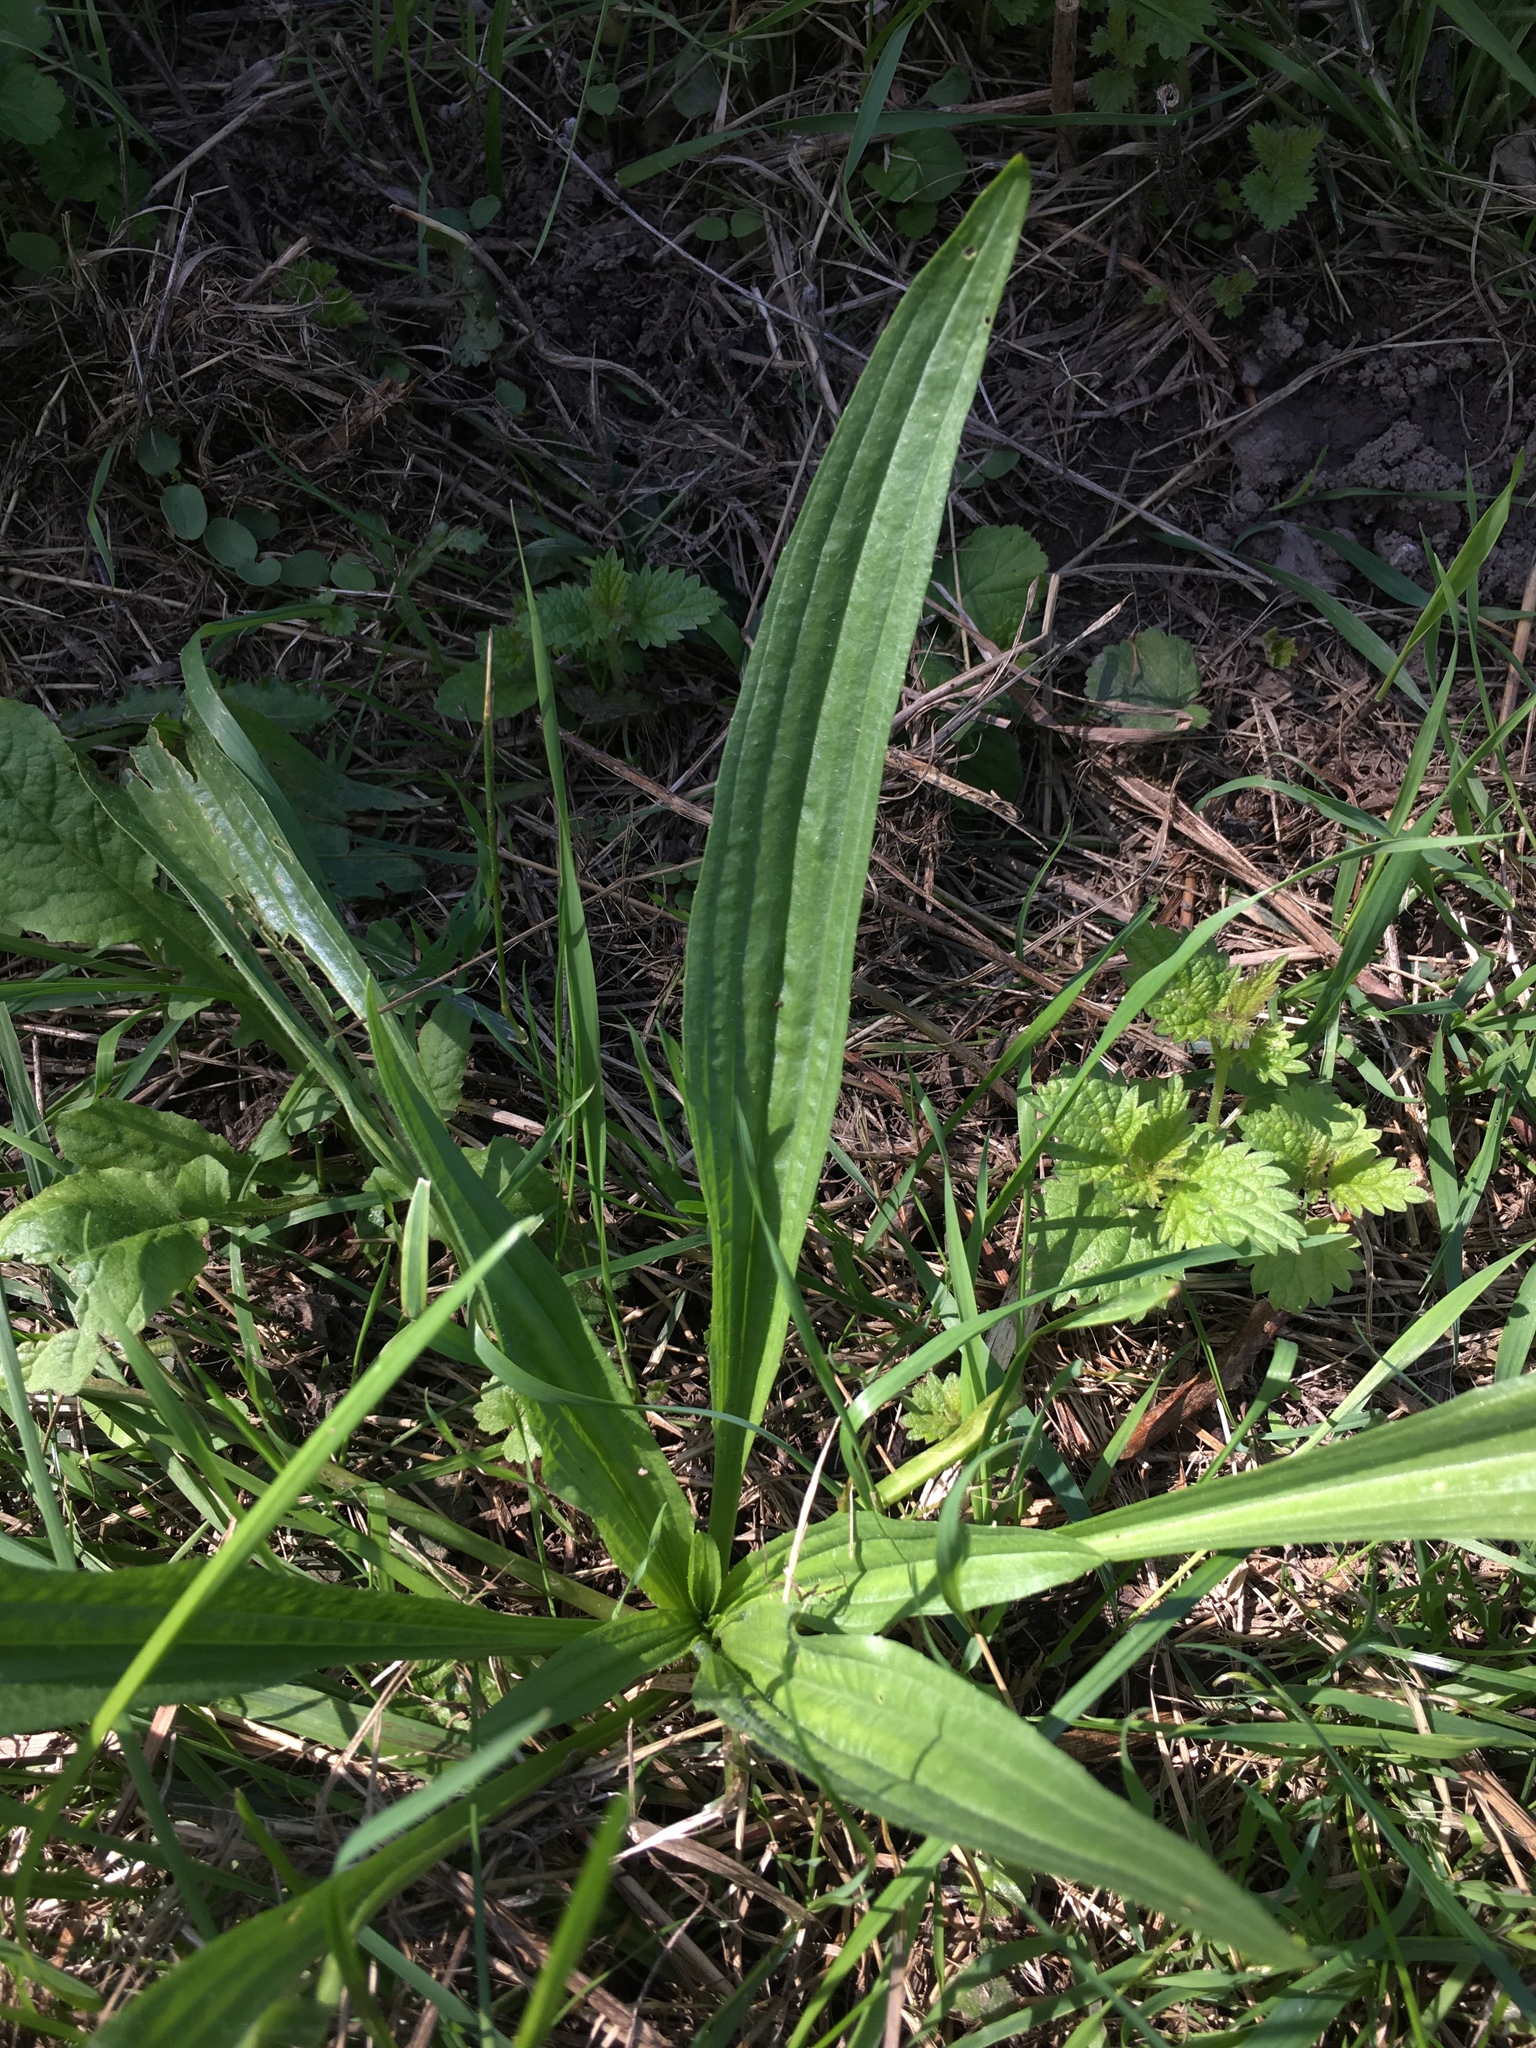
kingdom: Plantae
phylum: Tracheophyta
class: Magnoliopsida
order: Lamiales
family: Plantaginaceae
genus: Plantago
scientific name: Plantago lanceolata
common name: Ribwort plantain
